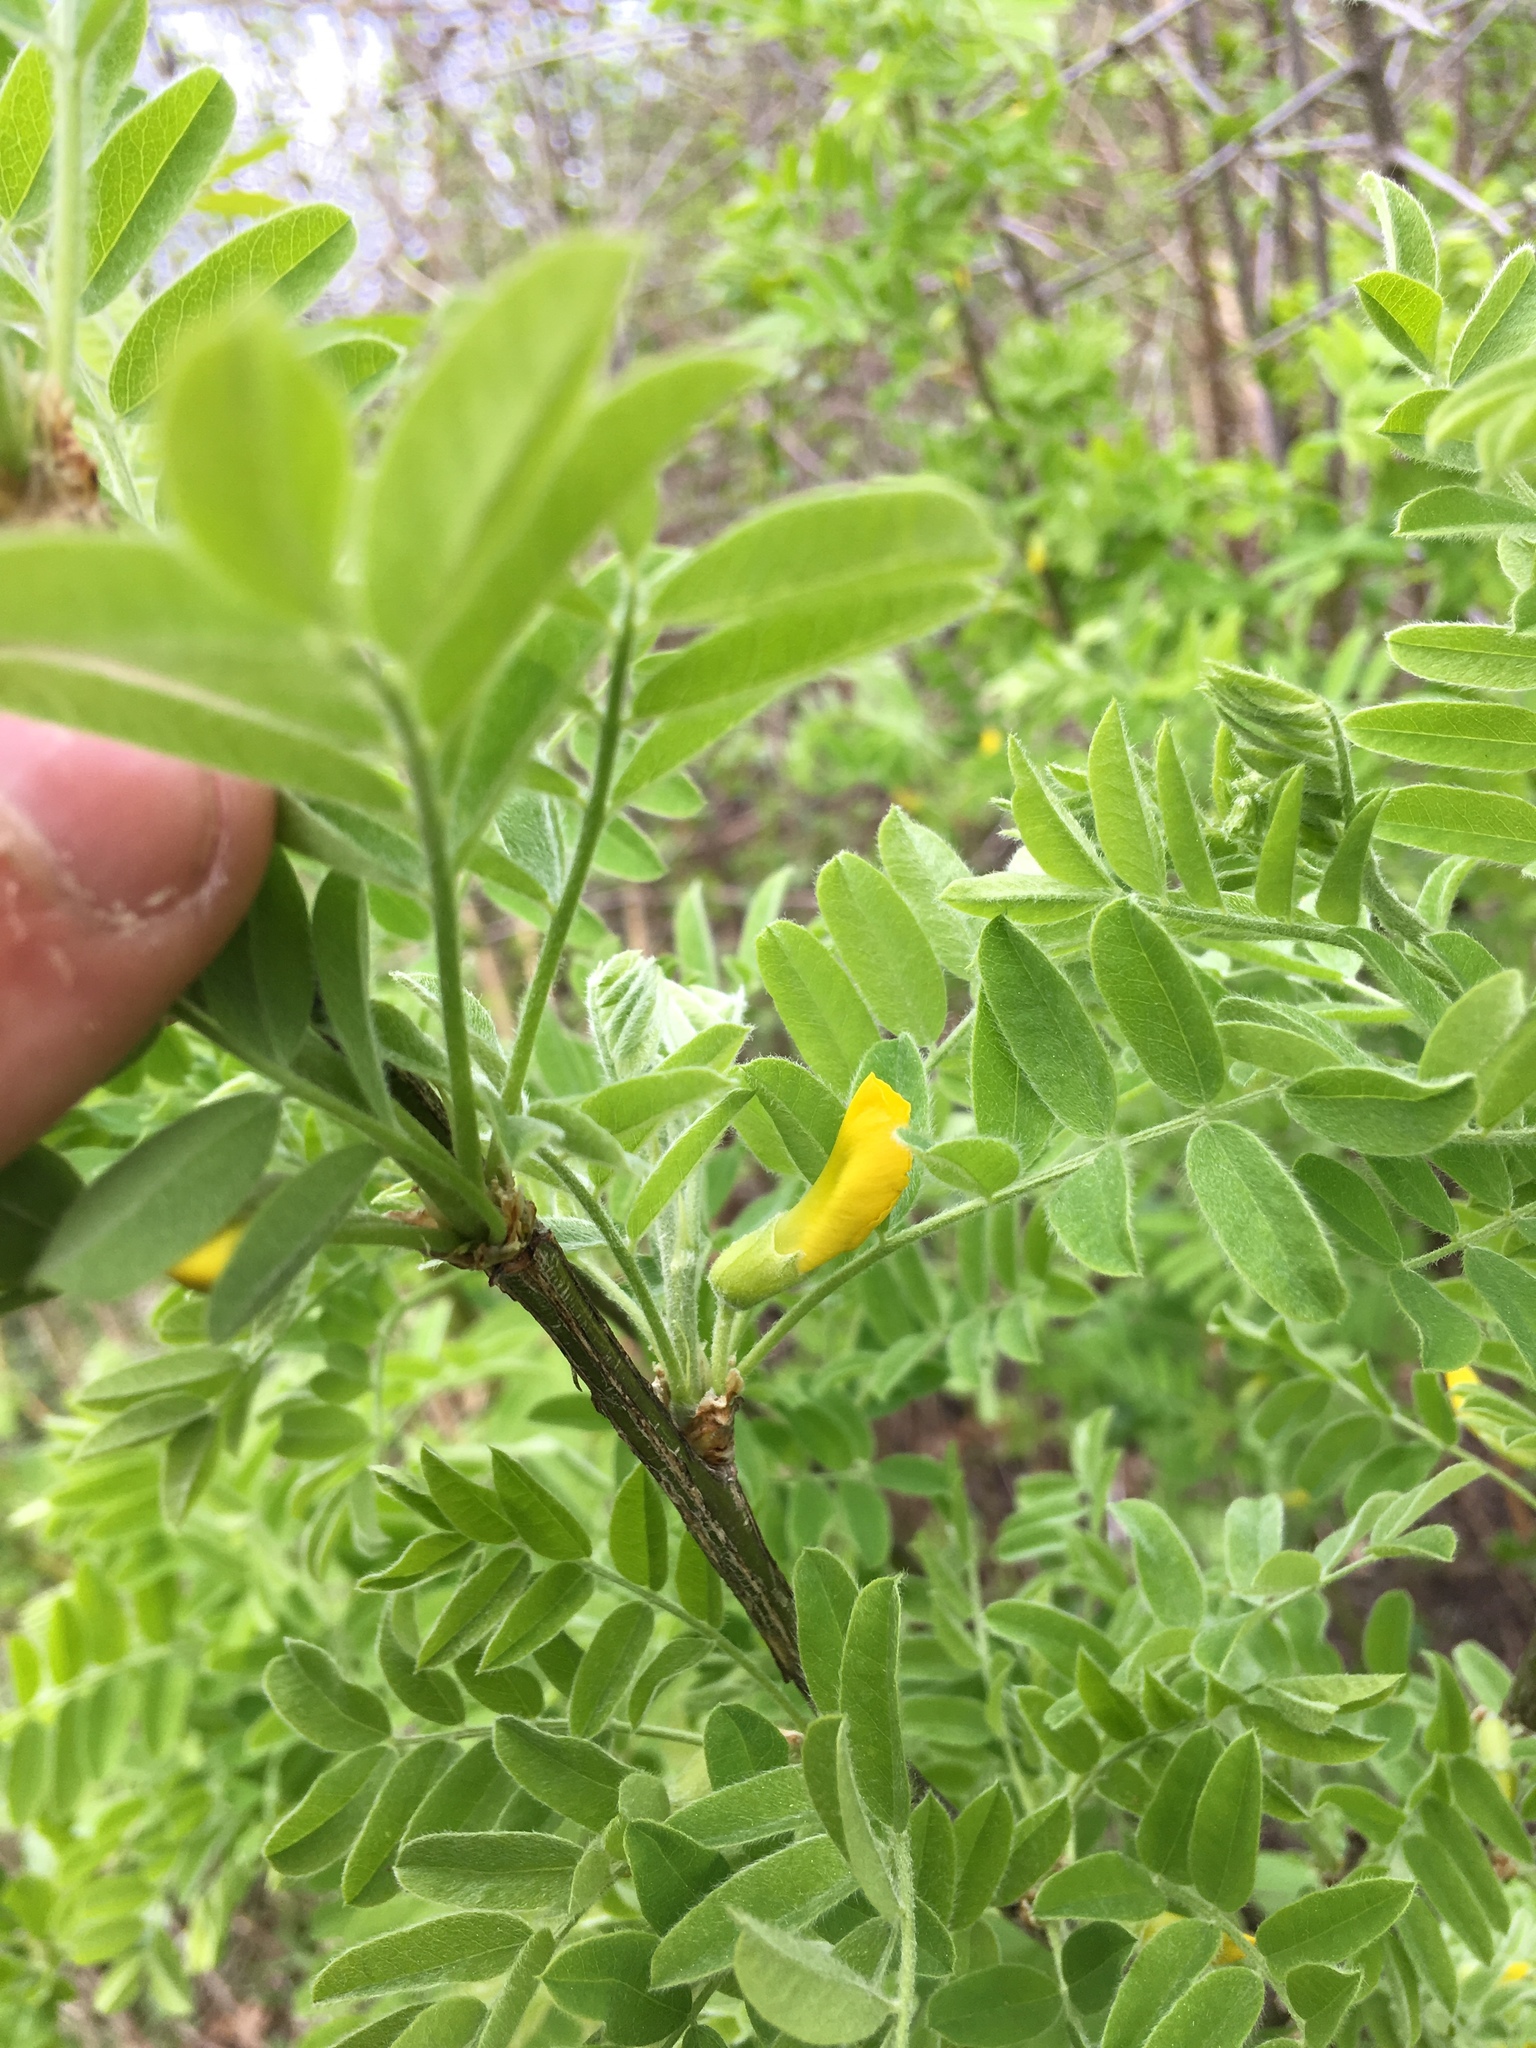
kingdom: Plantae
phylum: Tracheophyta
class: Magnoliopsida
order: Fabales
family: Fabaceae
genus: Caragana
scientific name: Caragana arborescens
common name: Siberian peashrub
